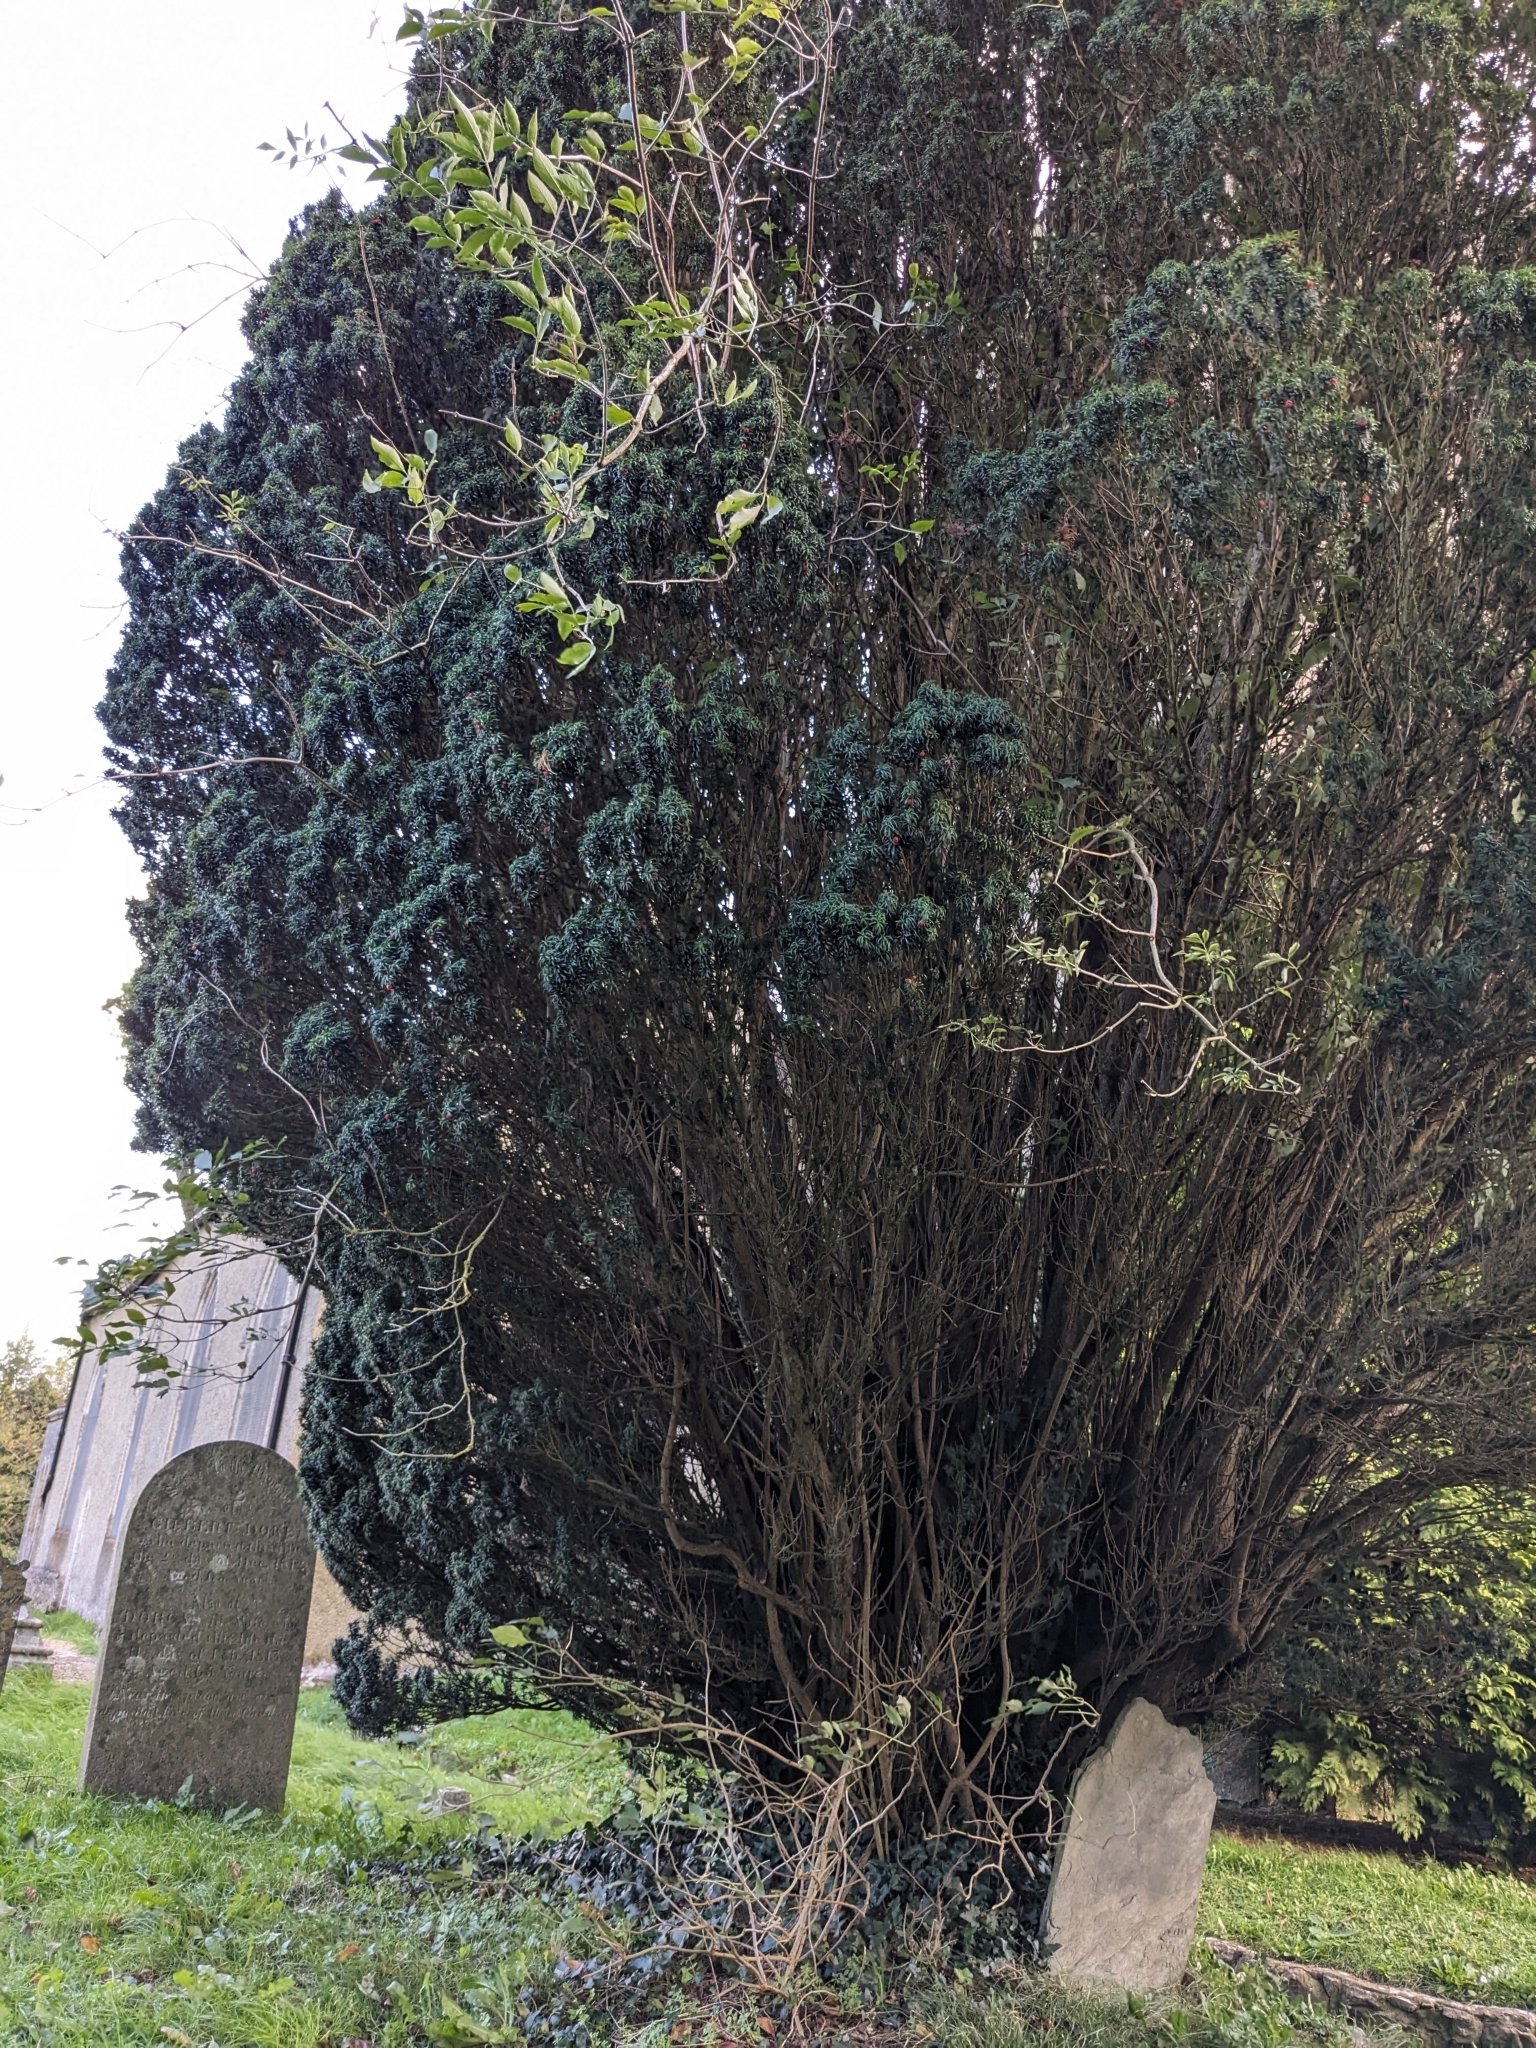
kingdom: Plantae
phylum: Tracheophyta
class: Pinopsida
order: Pinales
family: Taxaceae
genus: Taxus
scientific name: Taxus baccata
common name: Yew
